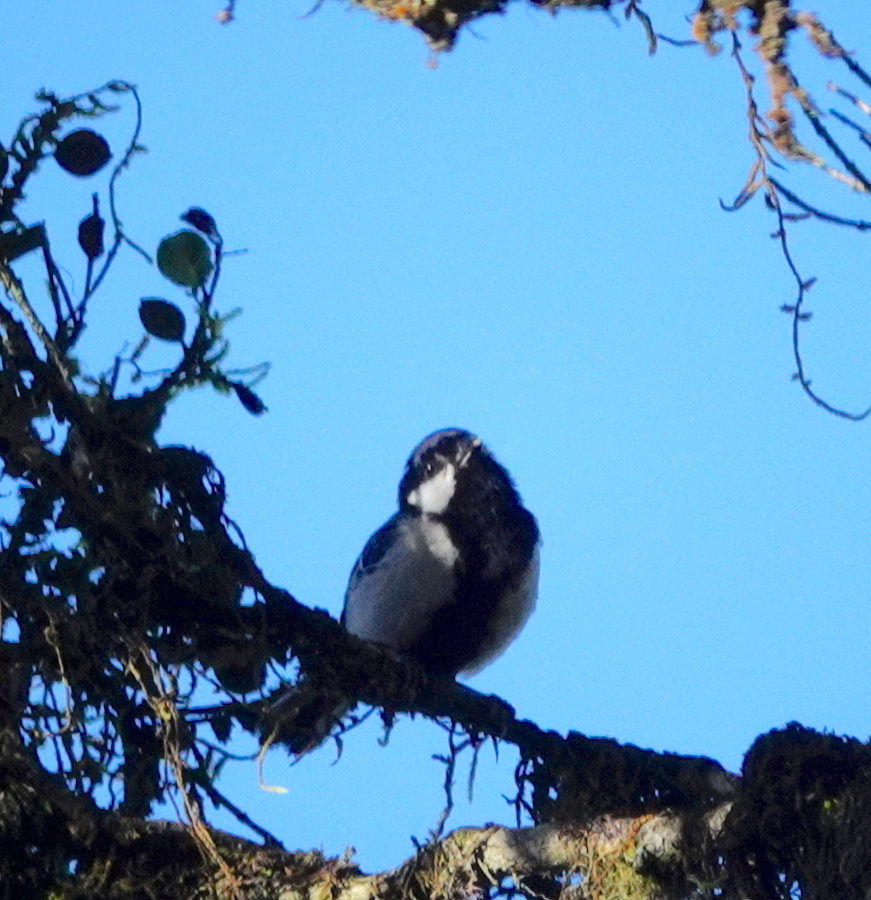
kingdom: Animalia
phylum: Chordata
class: Aves
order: Passeriformes
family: Paridae
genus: Parus
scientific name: Parus cinereus
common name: Cinereous tit
